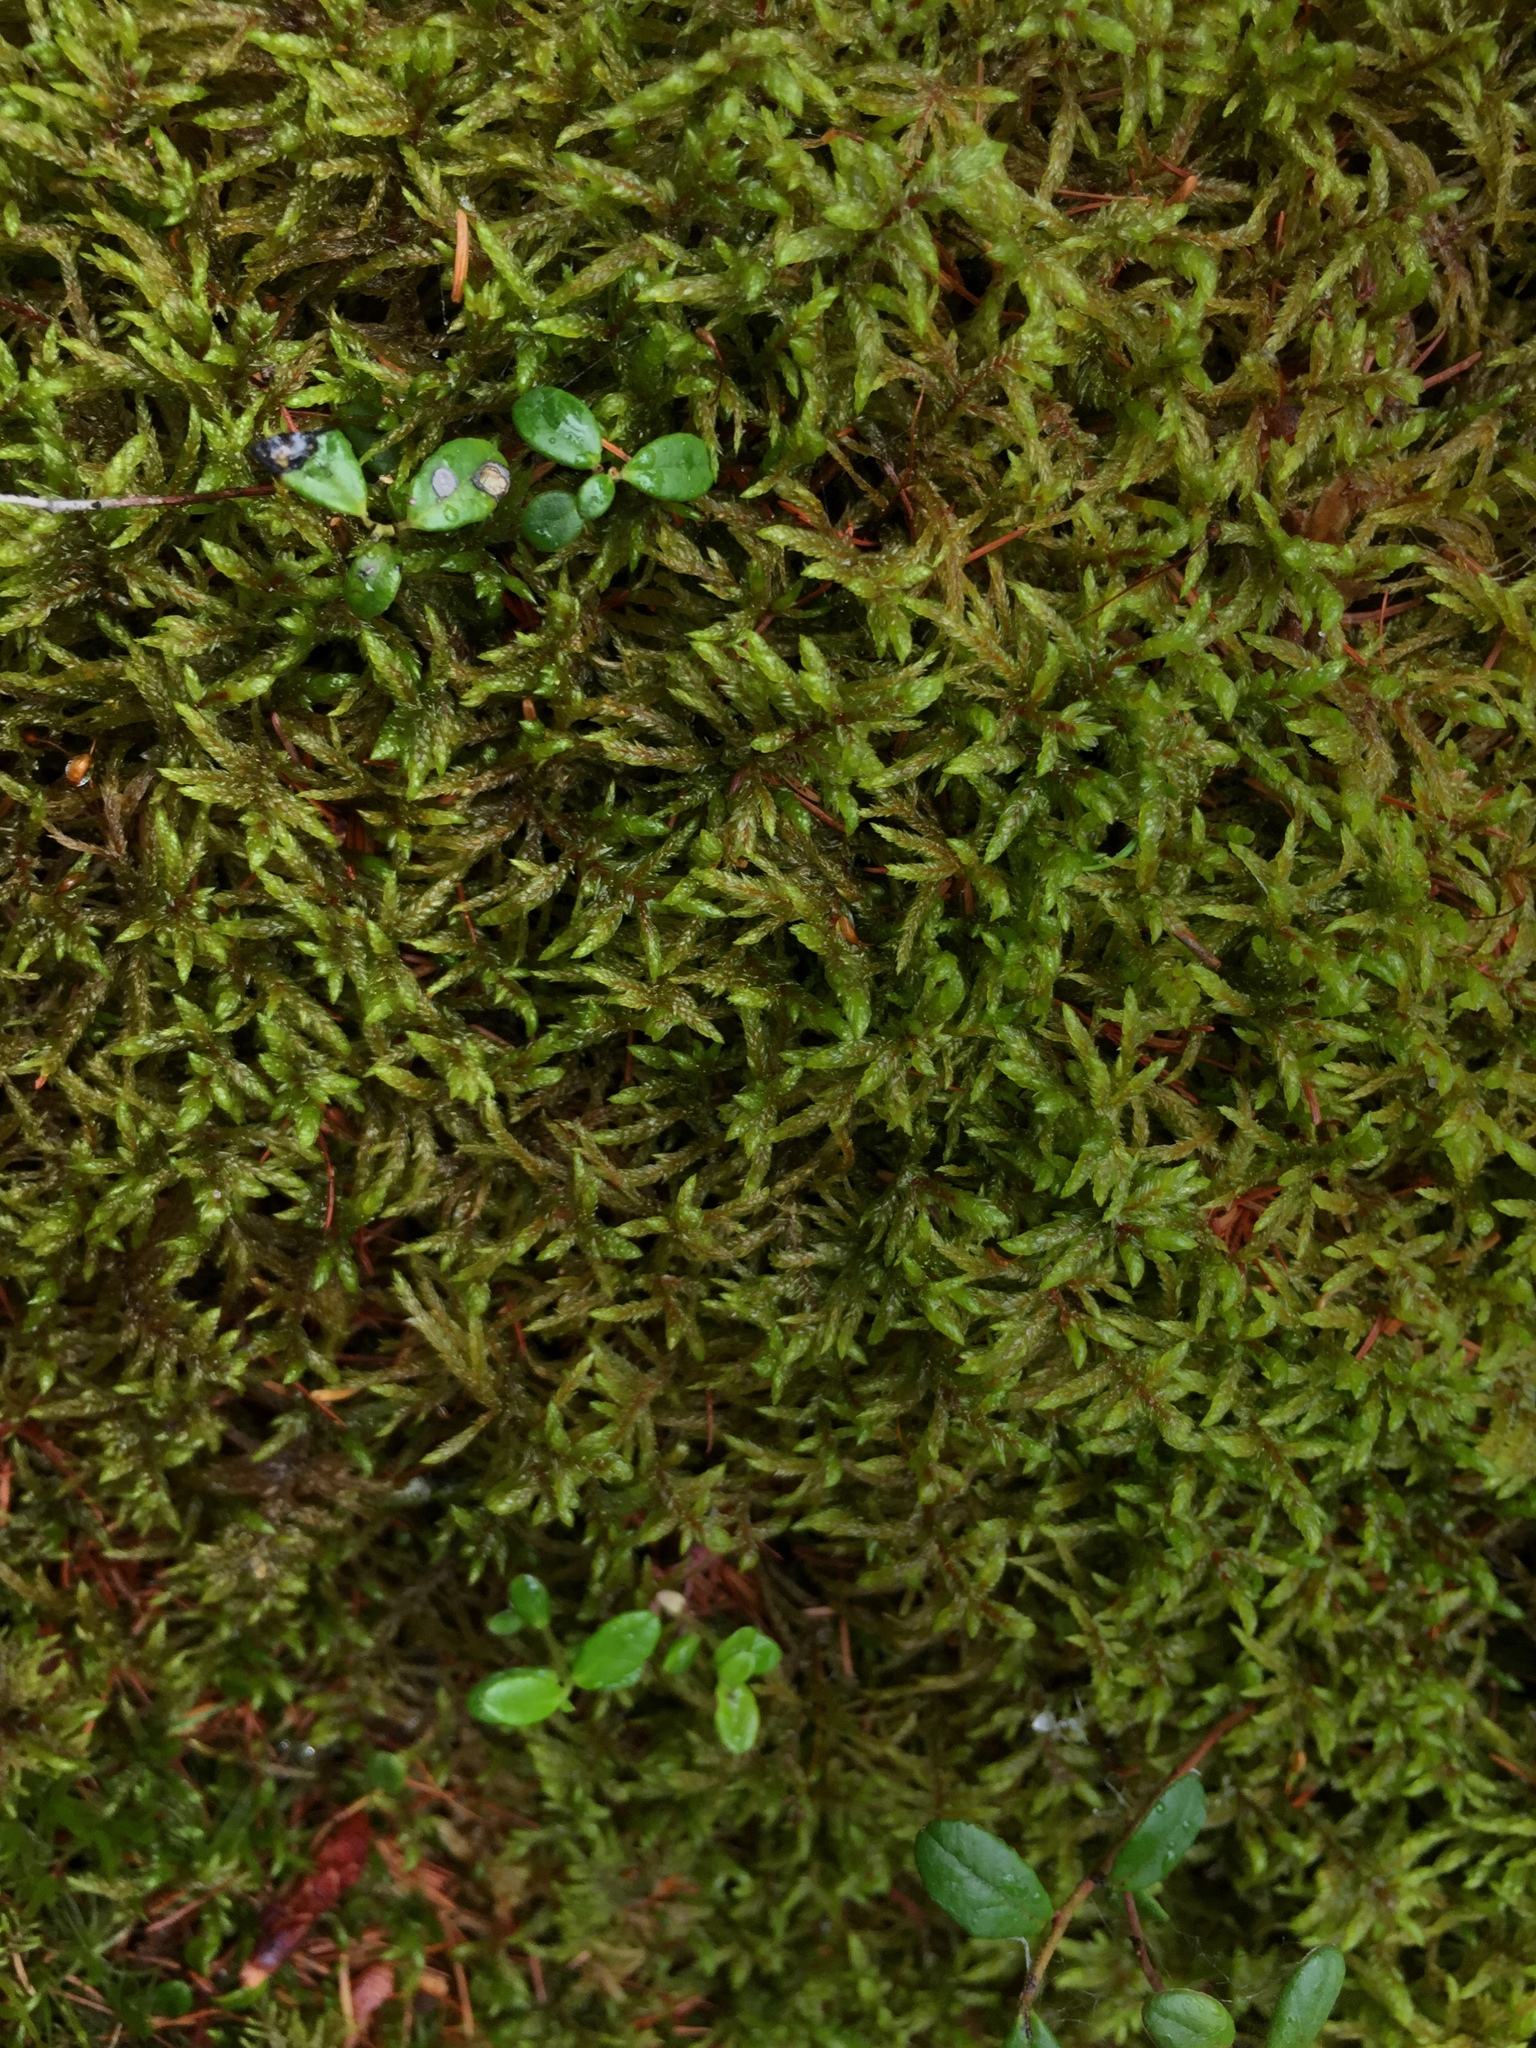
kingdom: Plantae
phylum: Bryophyta
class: Bryopsida
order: Hypnales
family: Hylocomiaceae
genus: Pleurozium
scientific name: Pleurozium schreberi
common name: Red-stemmed feather moss
